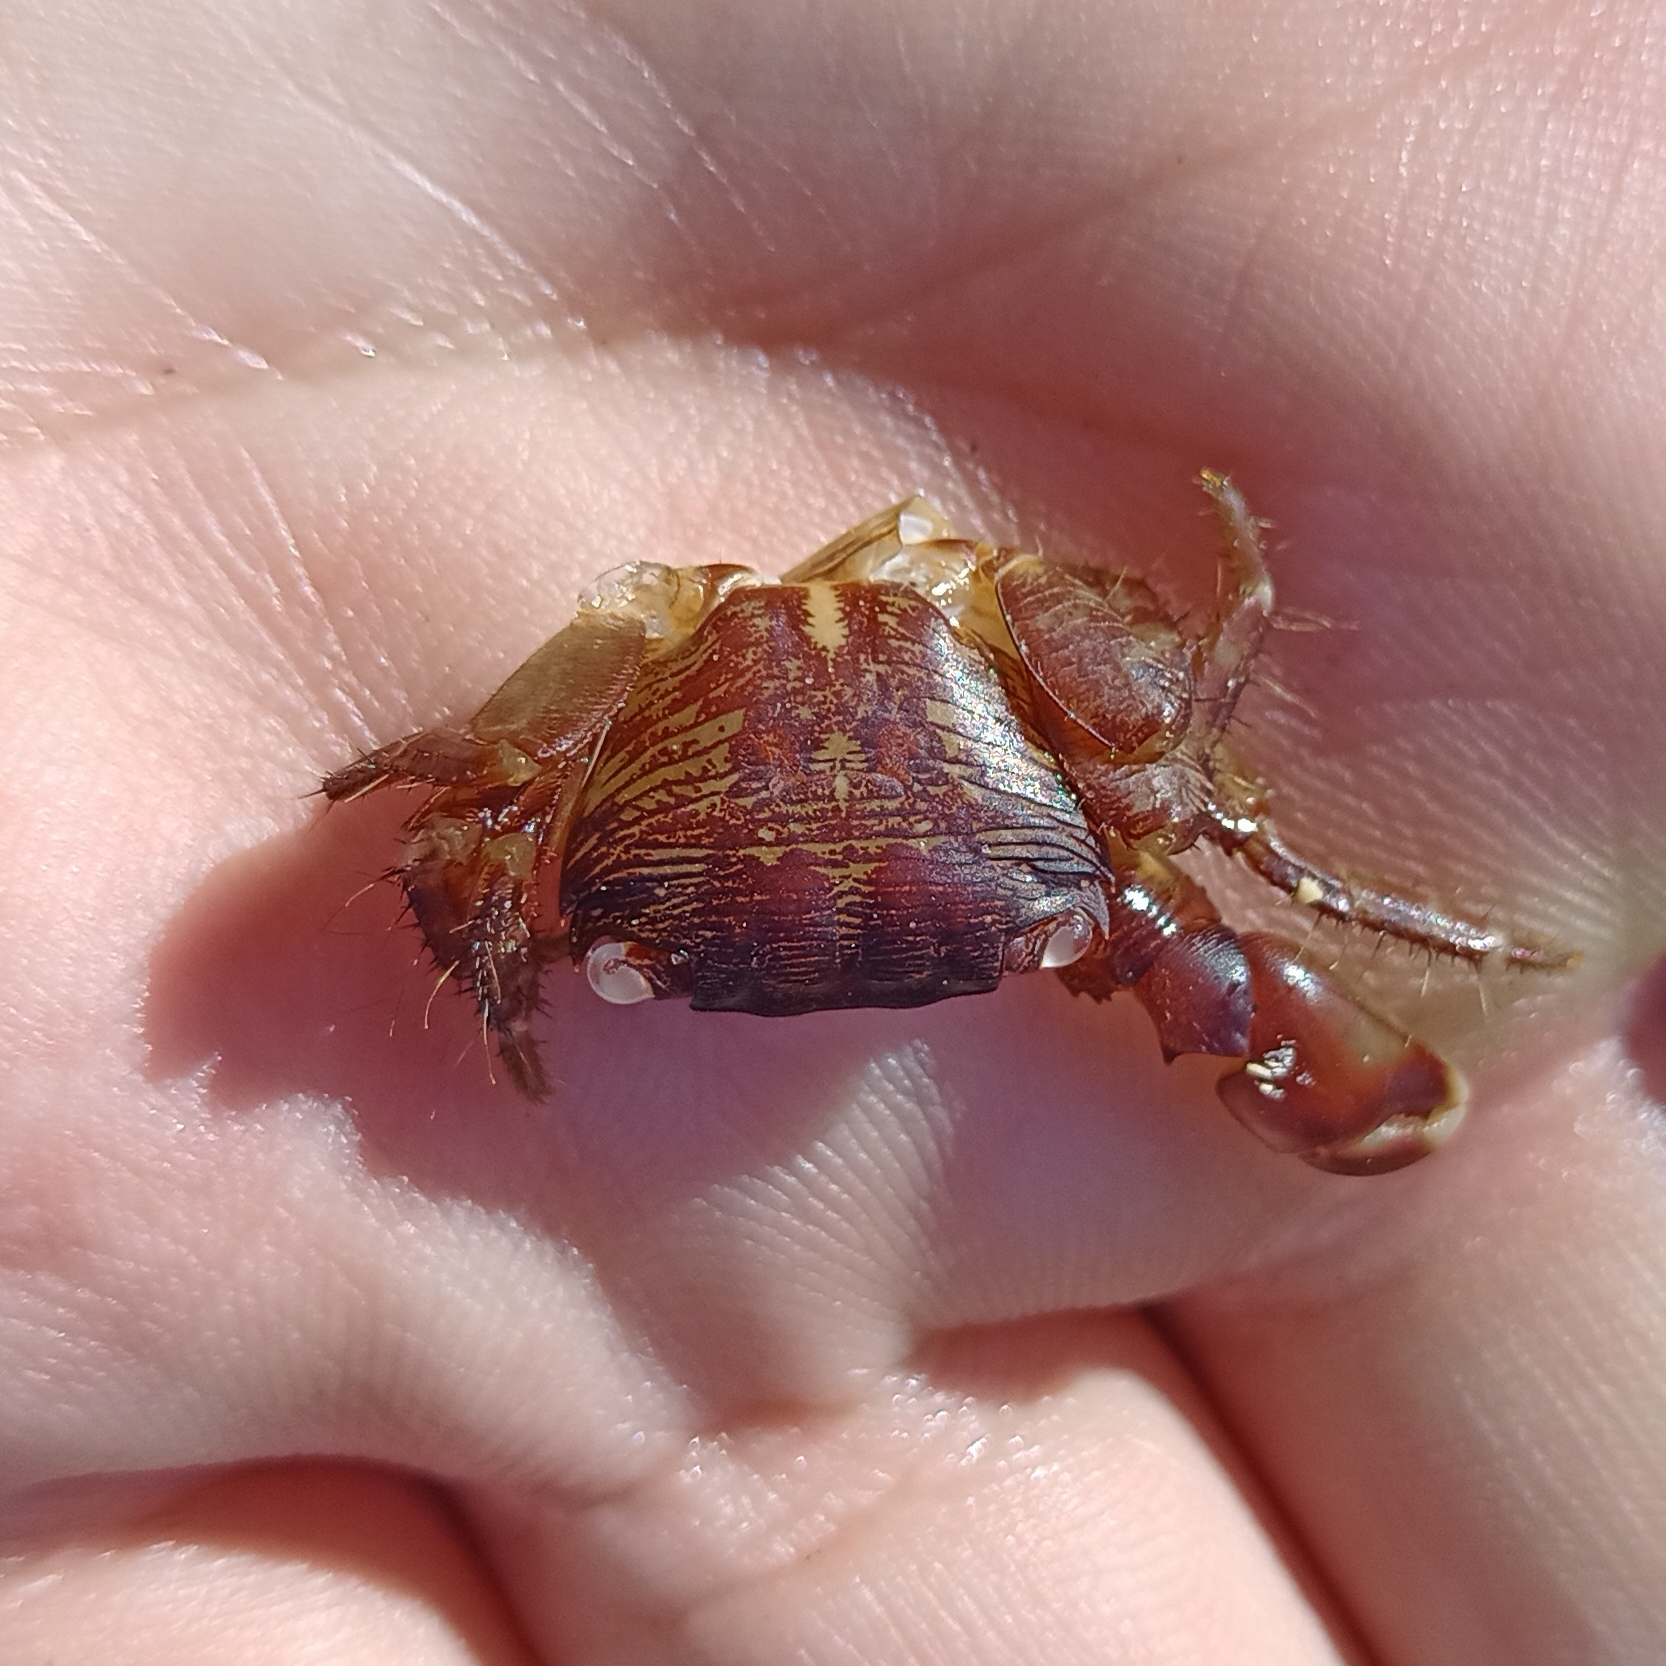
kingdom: Animalia
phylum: Arthropoda
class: Malacostraca
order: Decapoda
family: Grapsidae
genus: Pachygrapsus
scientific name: Pachygrapsus transversus
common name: Mottled shore crab
